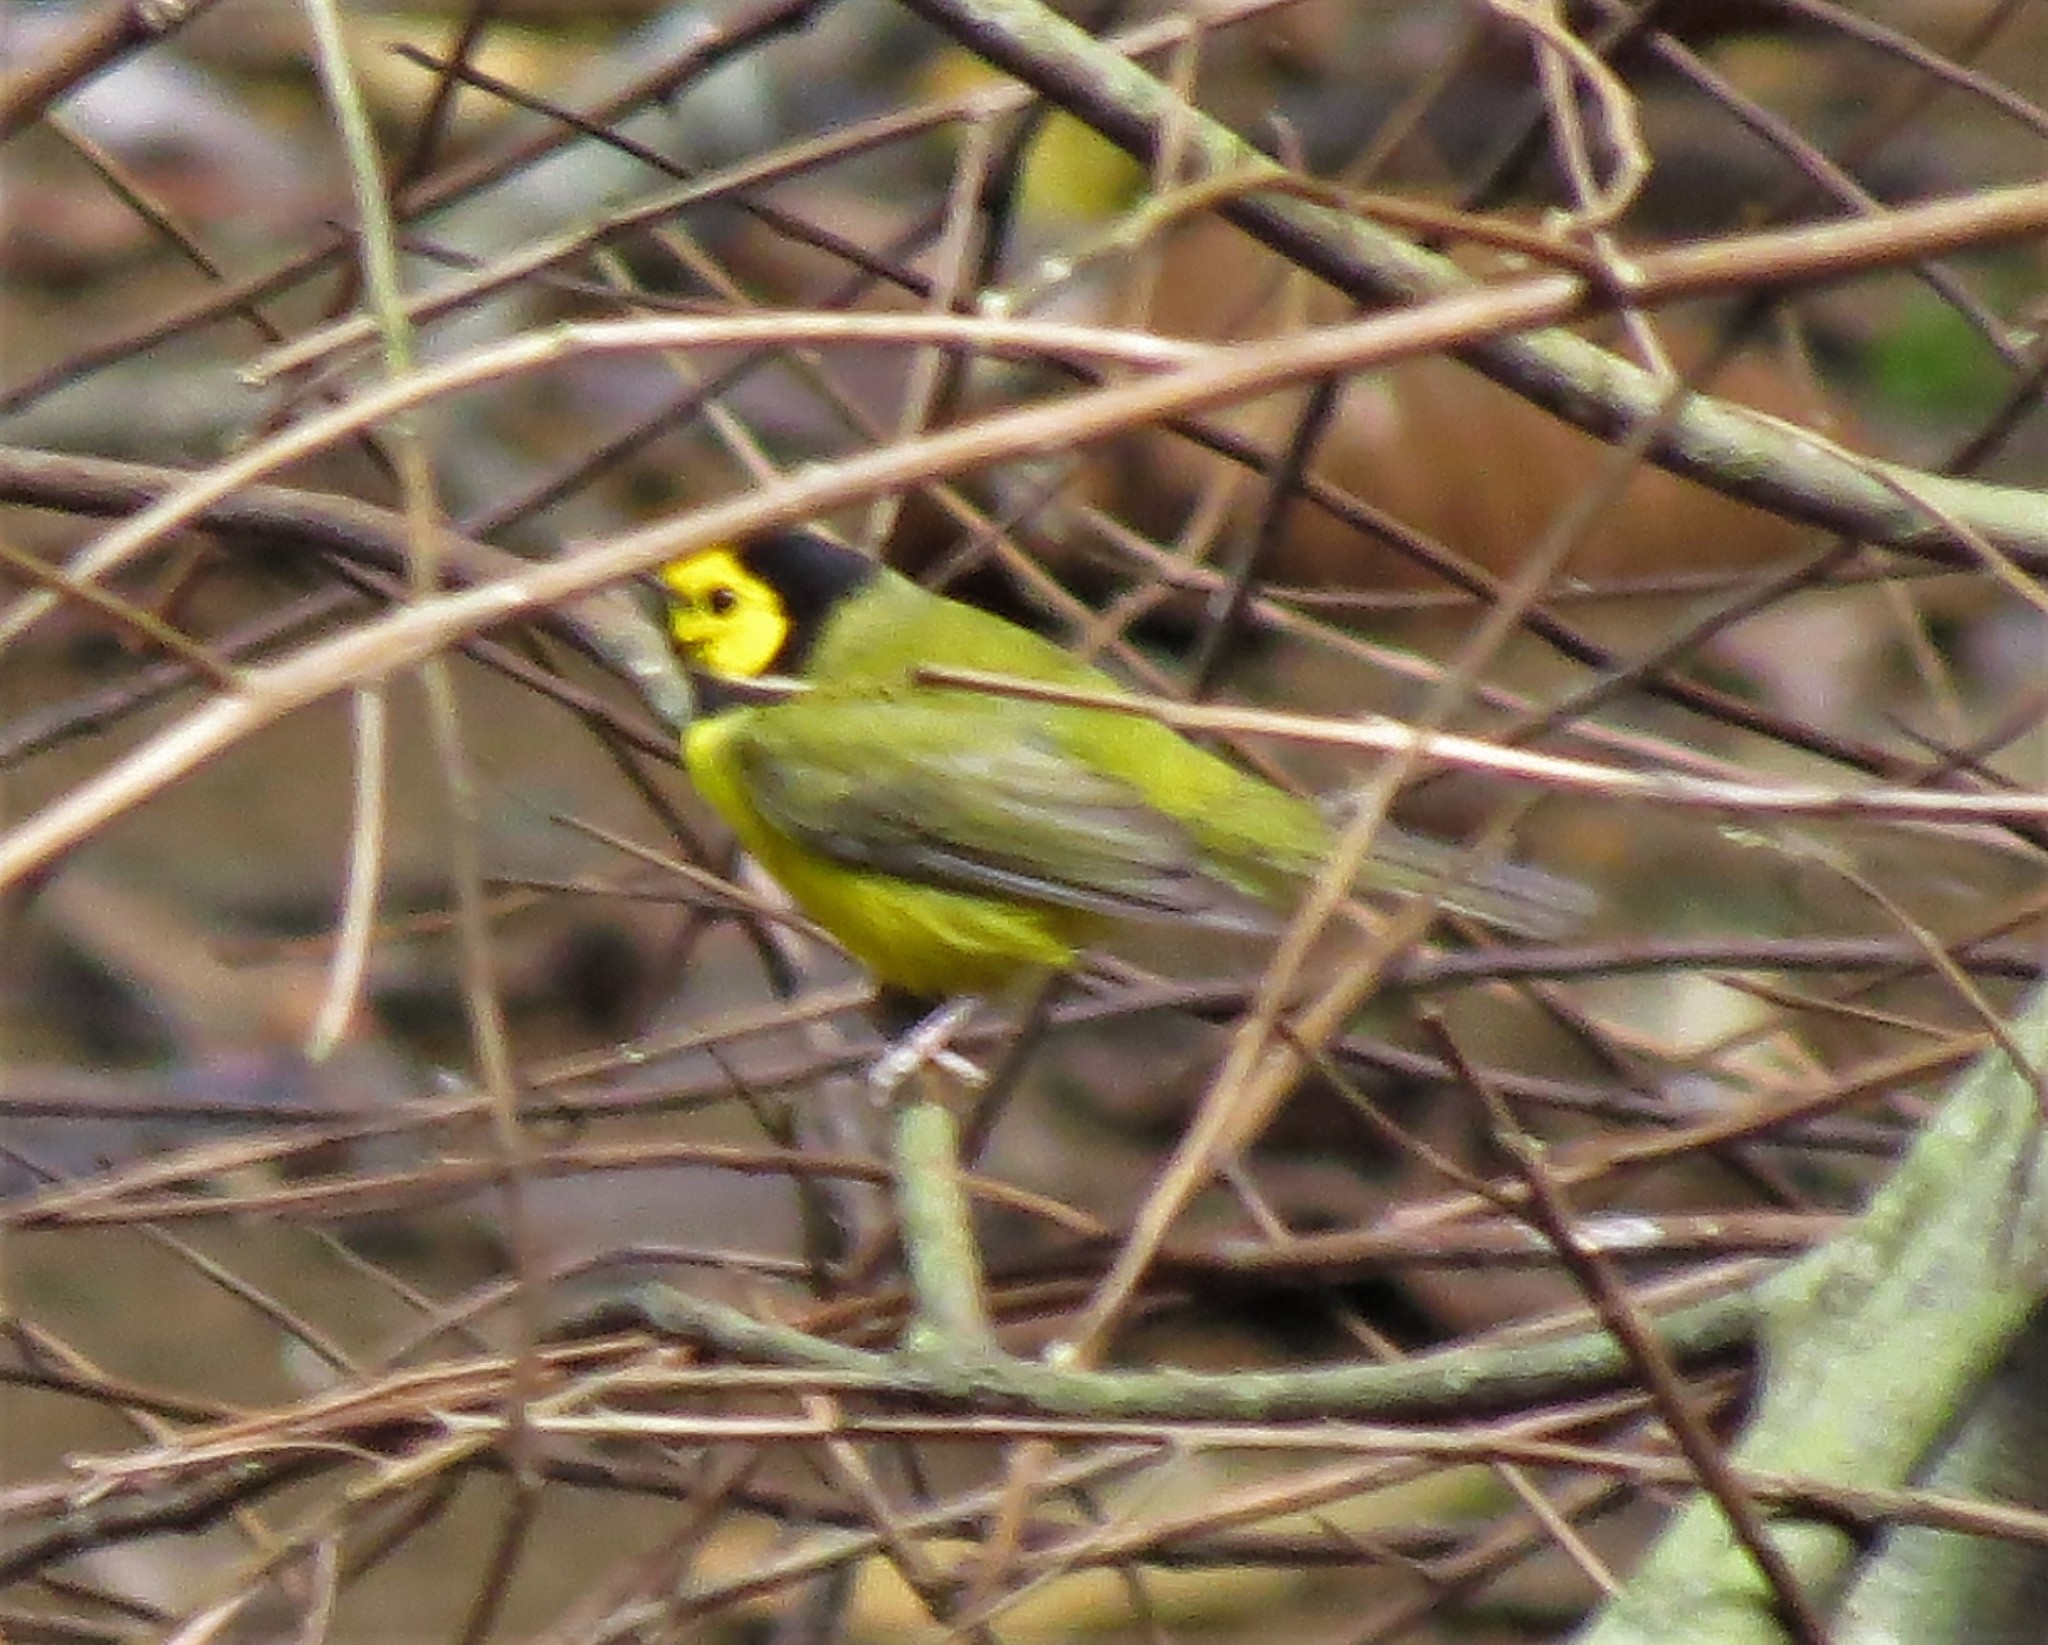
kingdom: Animalia
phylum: Chordata
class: Aves
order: Passeriformes
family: Parulidae
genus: Setophaga
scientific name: Setophaga citrina
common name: Hooded warbler
